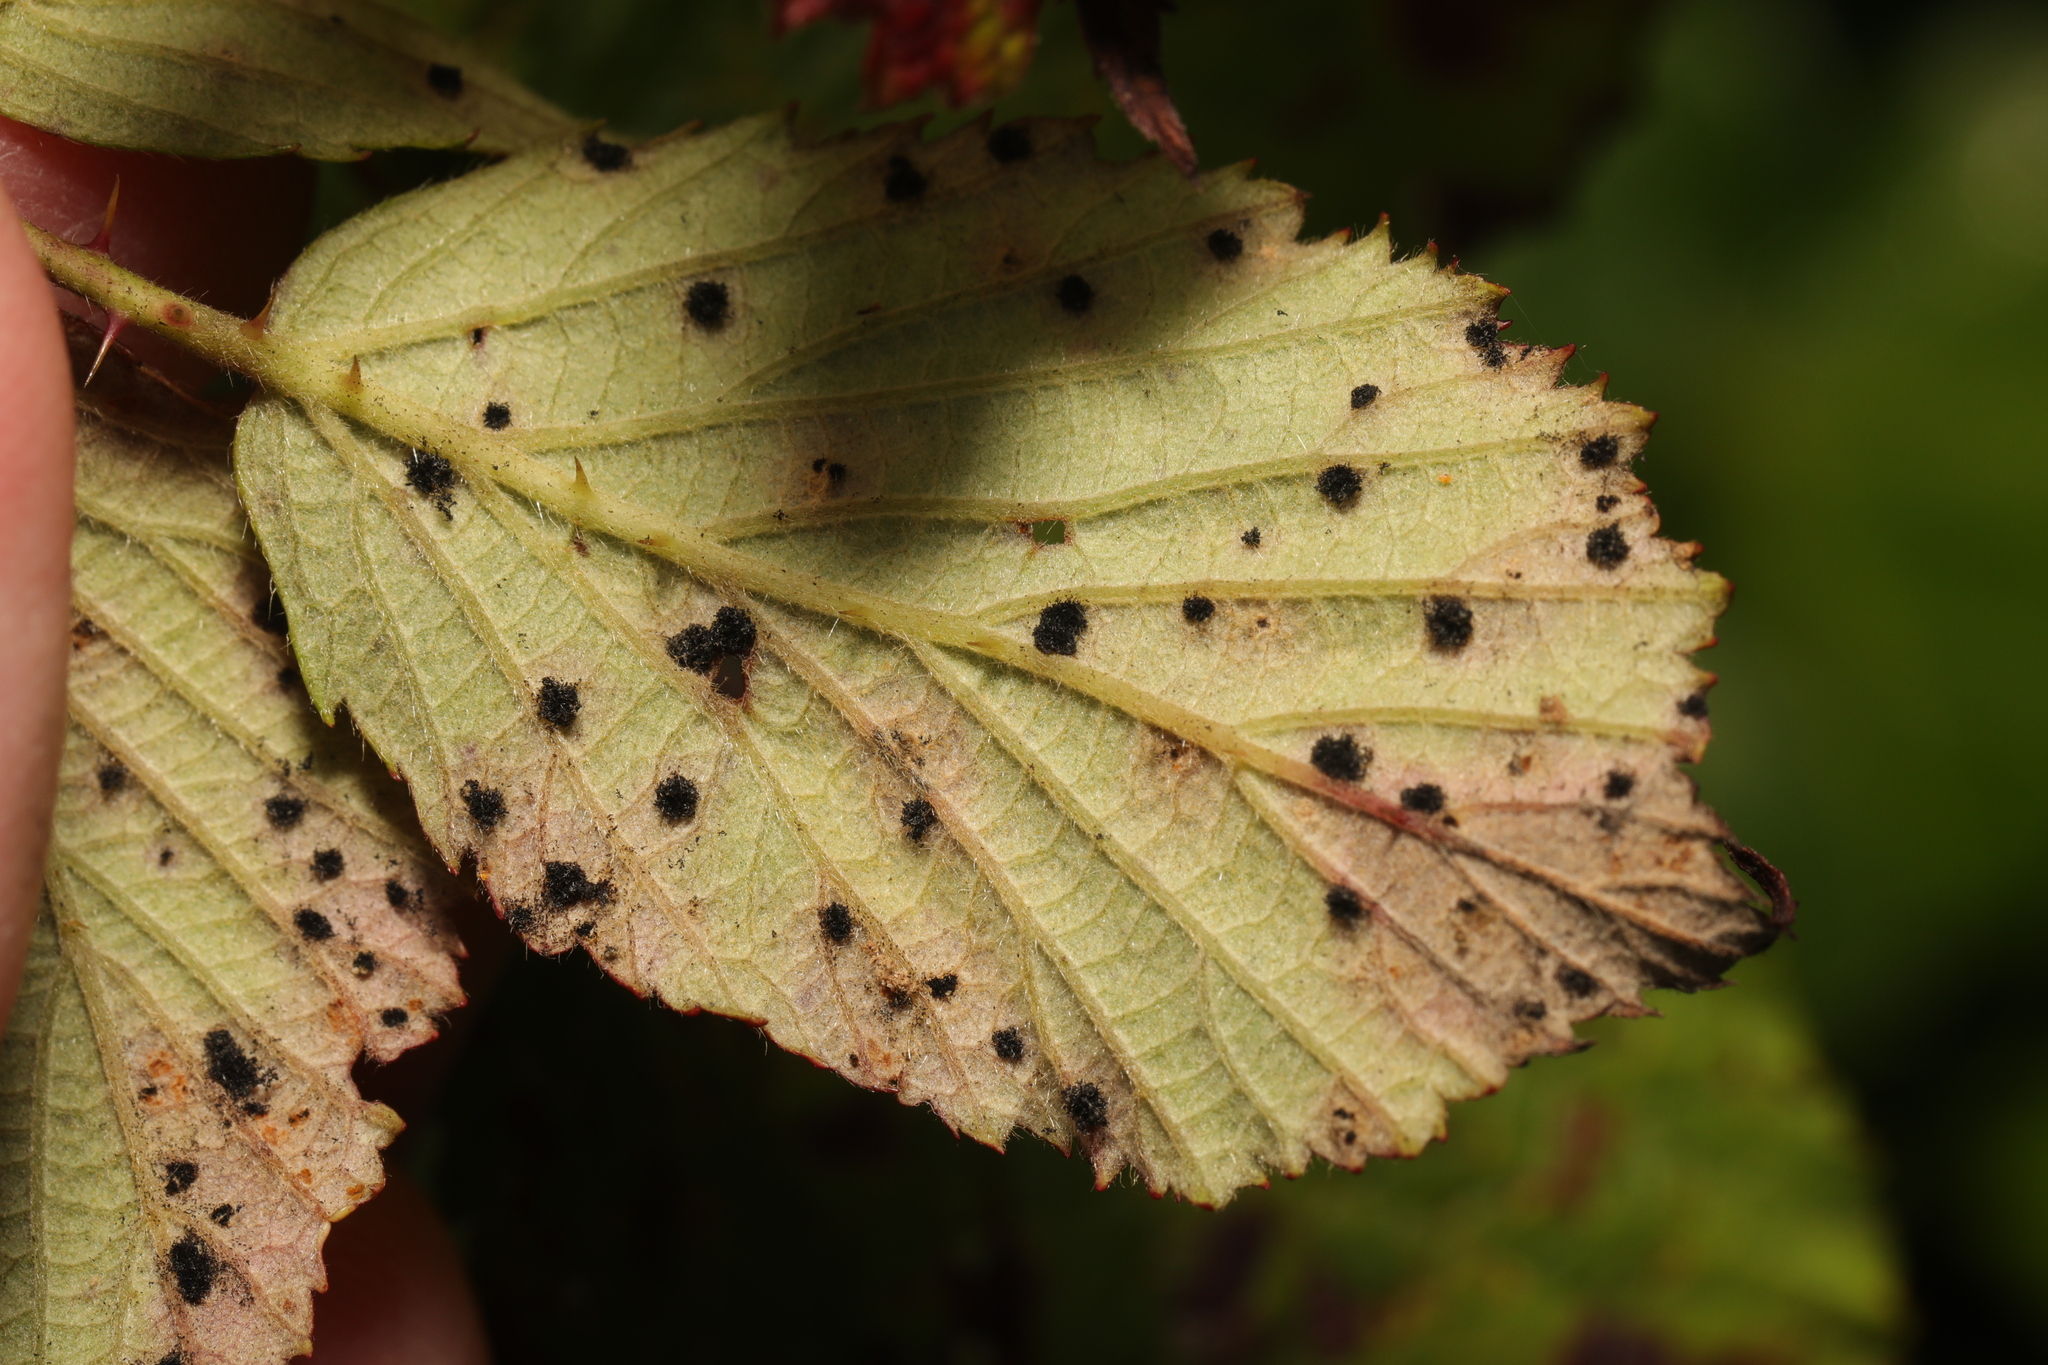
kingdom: Fungi
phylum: Basidiomycota
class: Pucciniomycetes
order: Pucciniales
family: Phragmidiaceae
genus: Phragmidium
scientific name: Phragmidium violaceum
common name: Violet bramble rust
